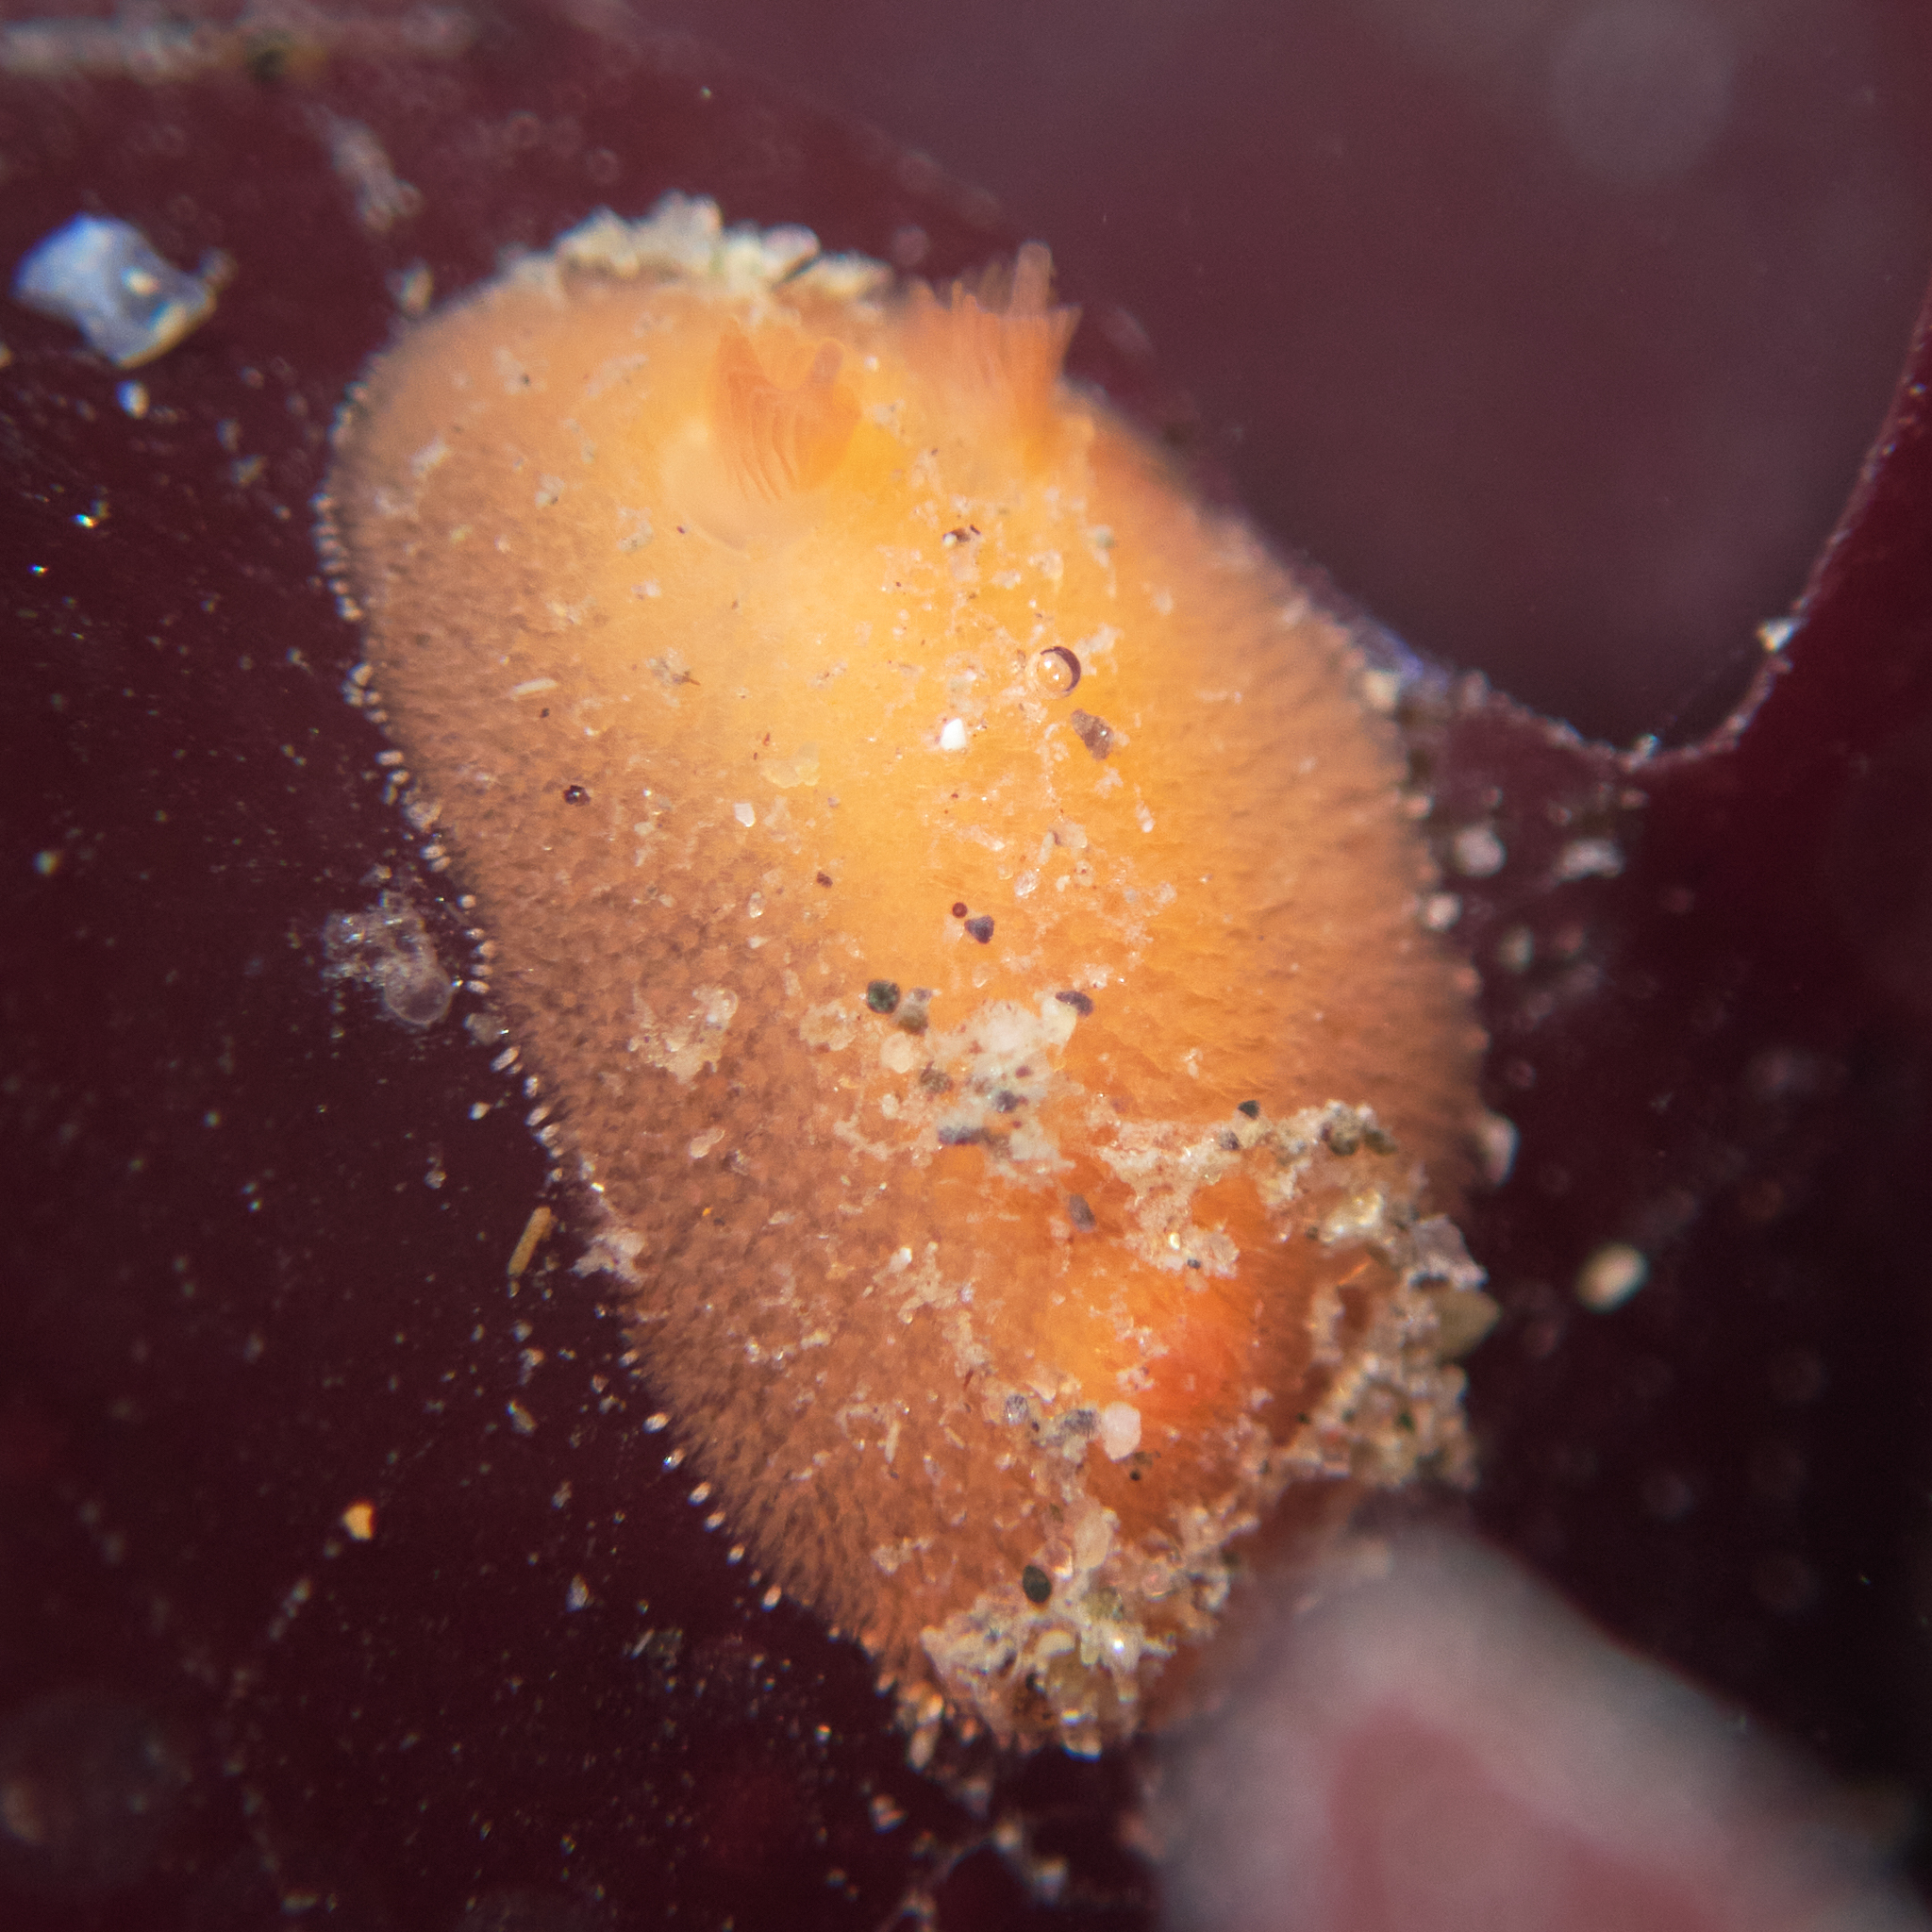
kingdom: Animalia
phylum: Mollusca
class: Gastropoda
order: Nudibranchia
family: Discodorididae
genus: Rostanga
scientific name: Rostanga pulchra
